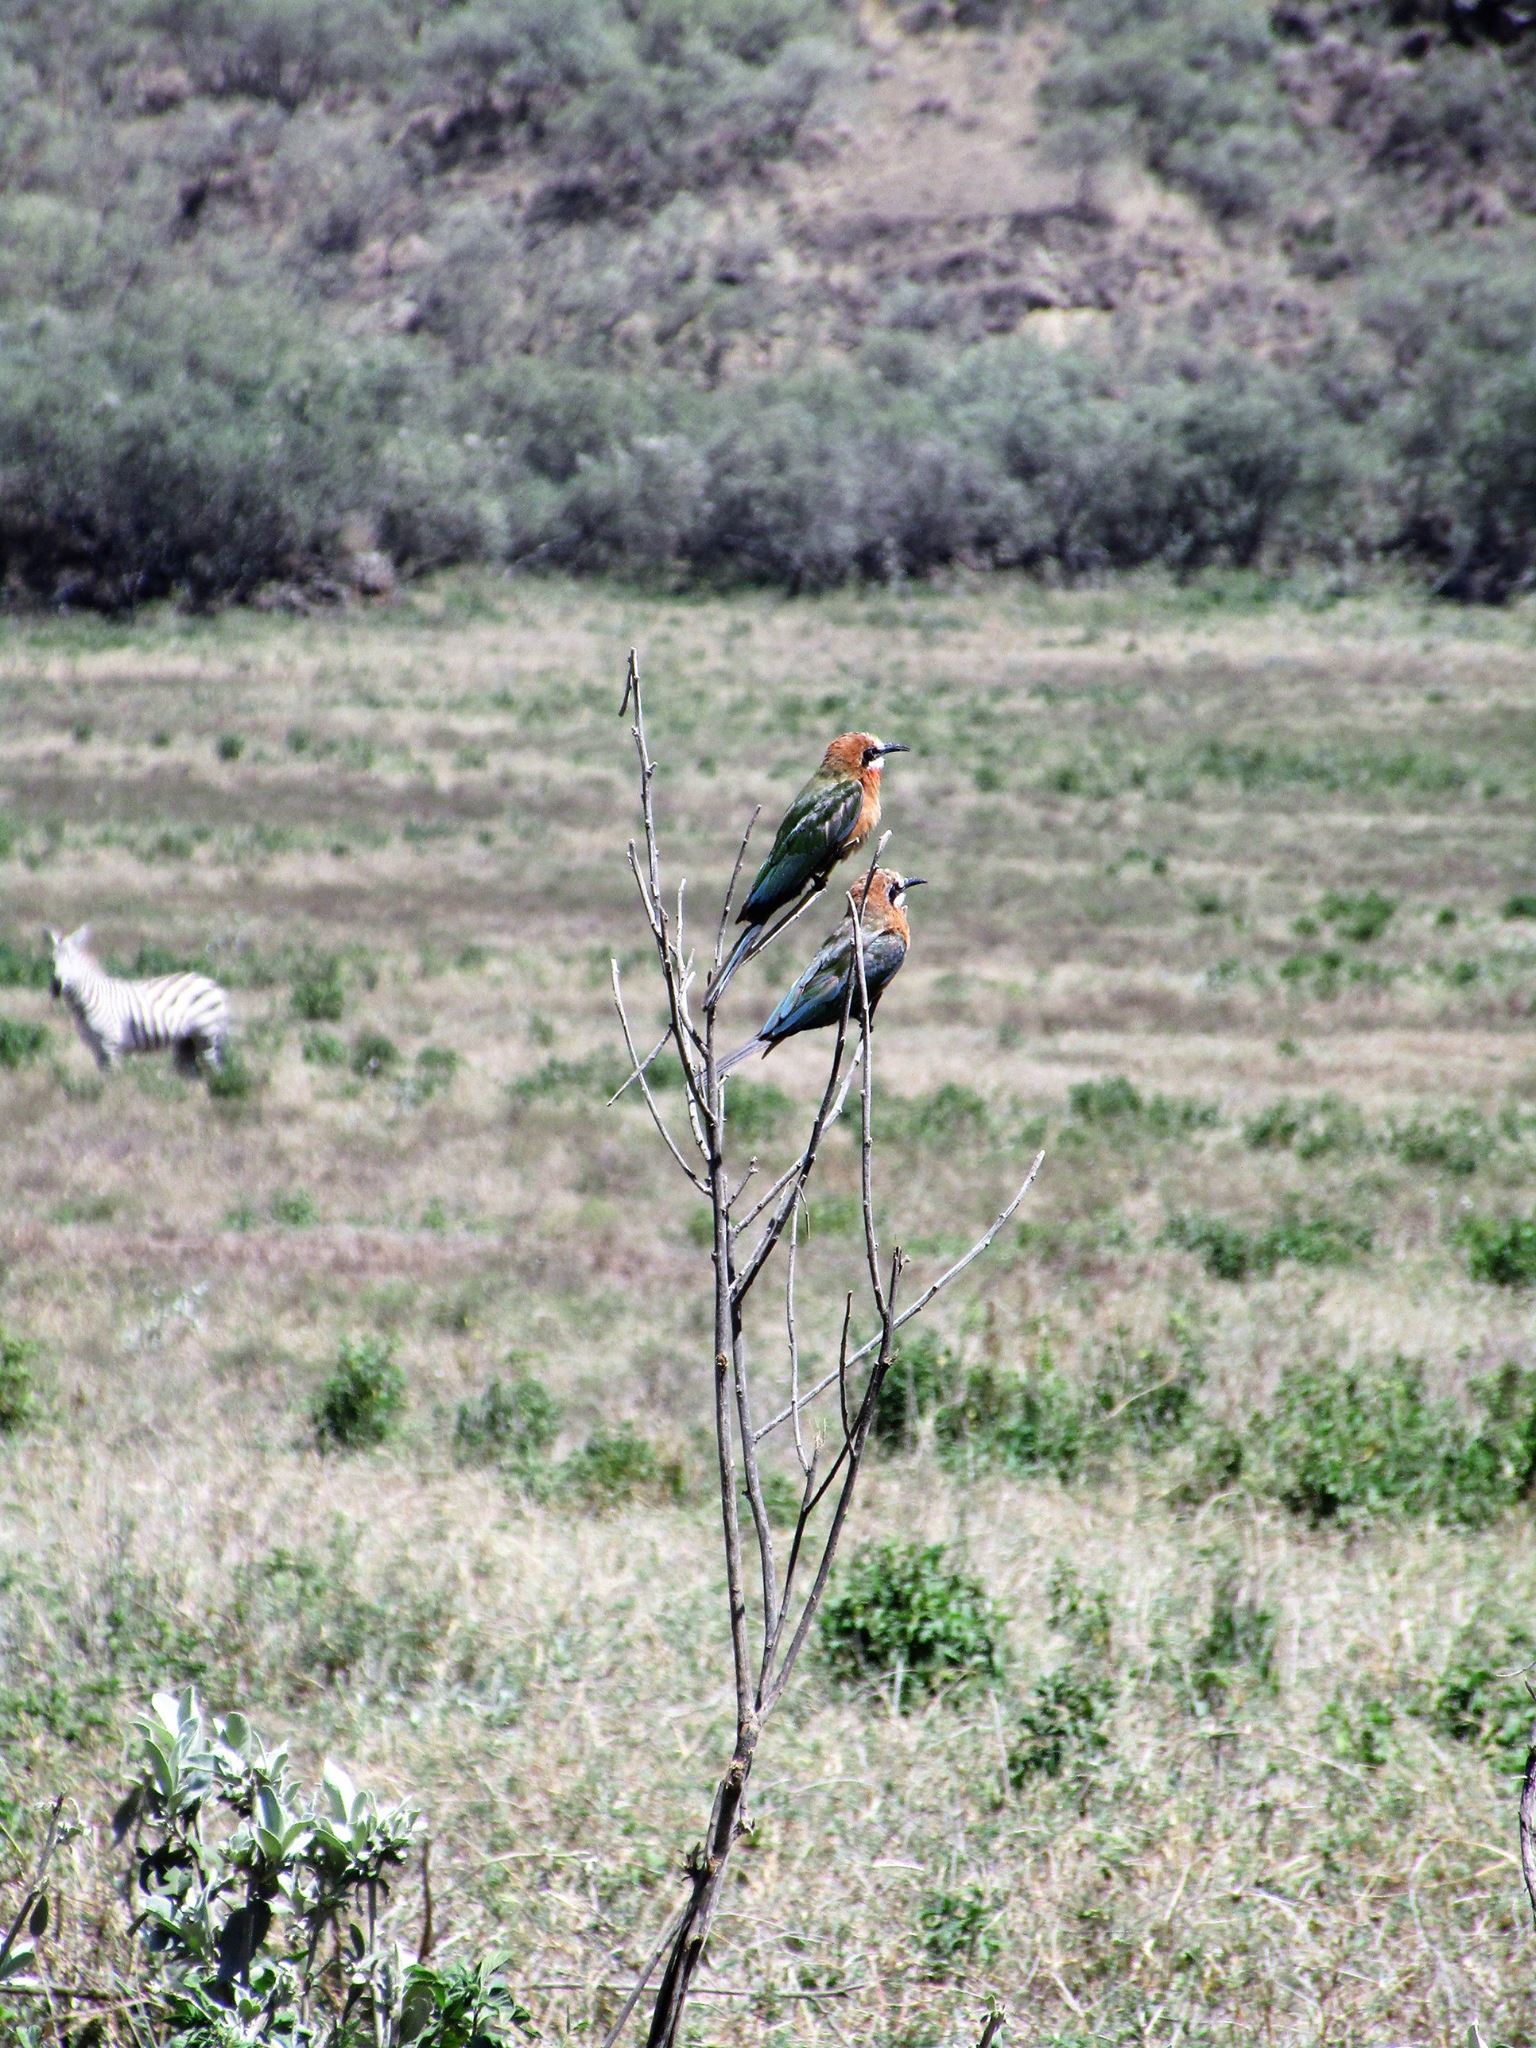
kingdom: Animalia
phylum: Chordata
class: Aves
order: Coraciiformes
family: Meropidae
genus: Merops
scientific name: Merops bullockoides
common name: White-fronted bee-eater
